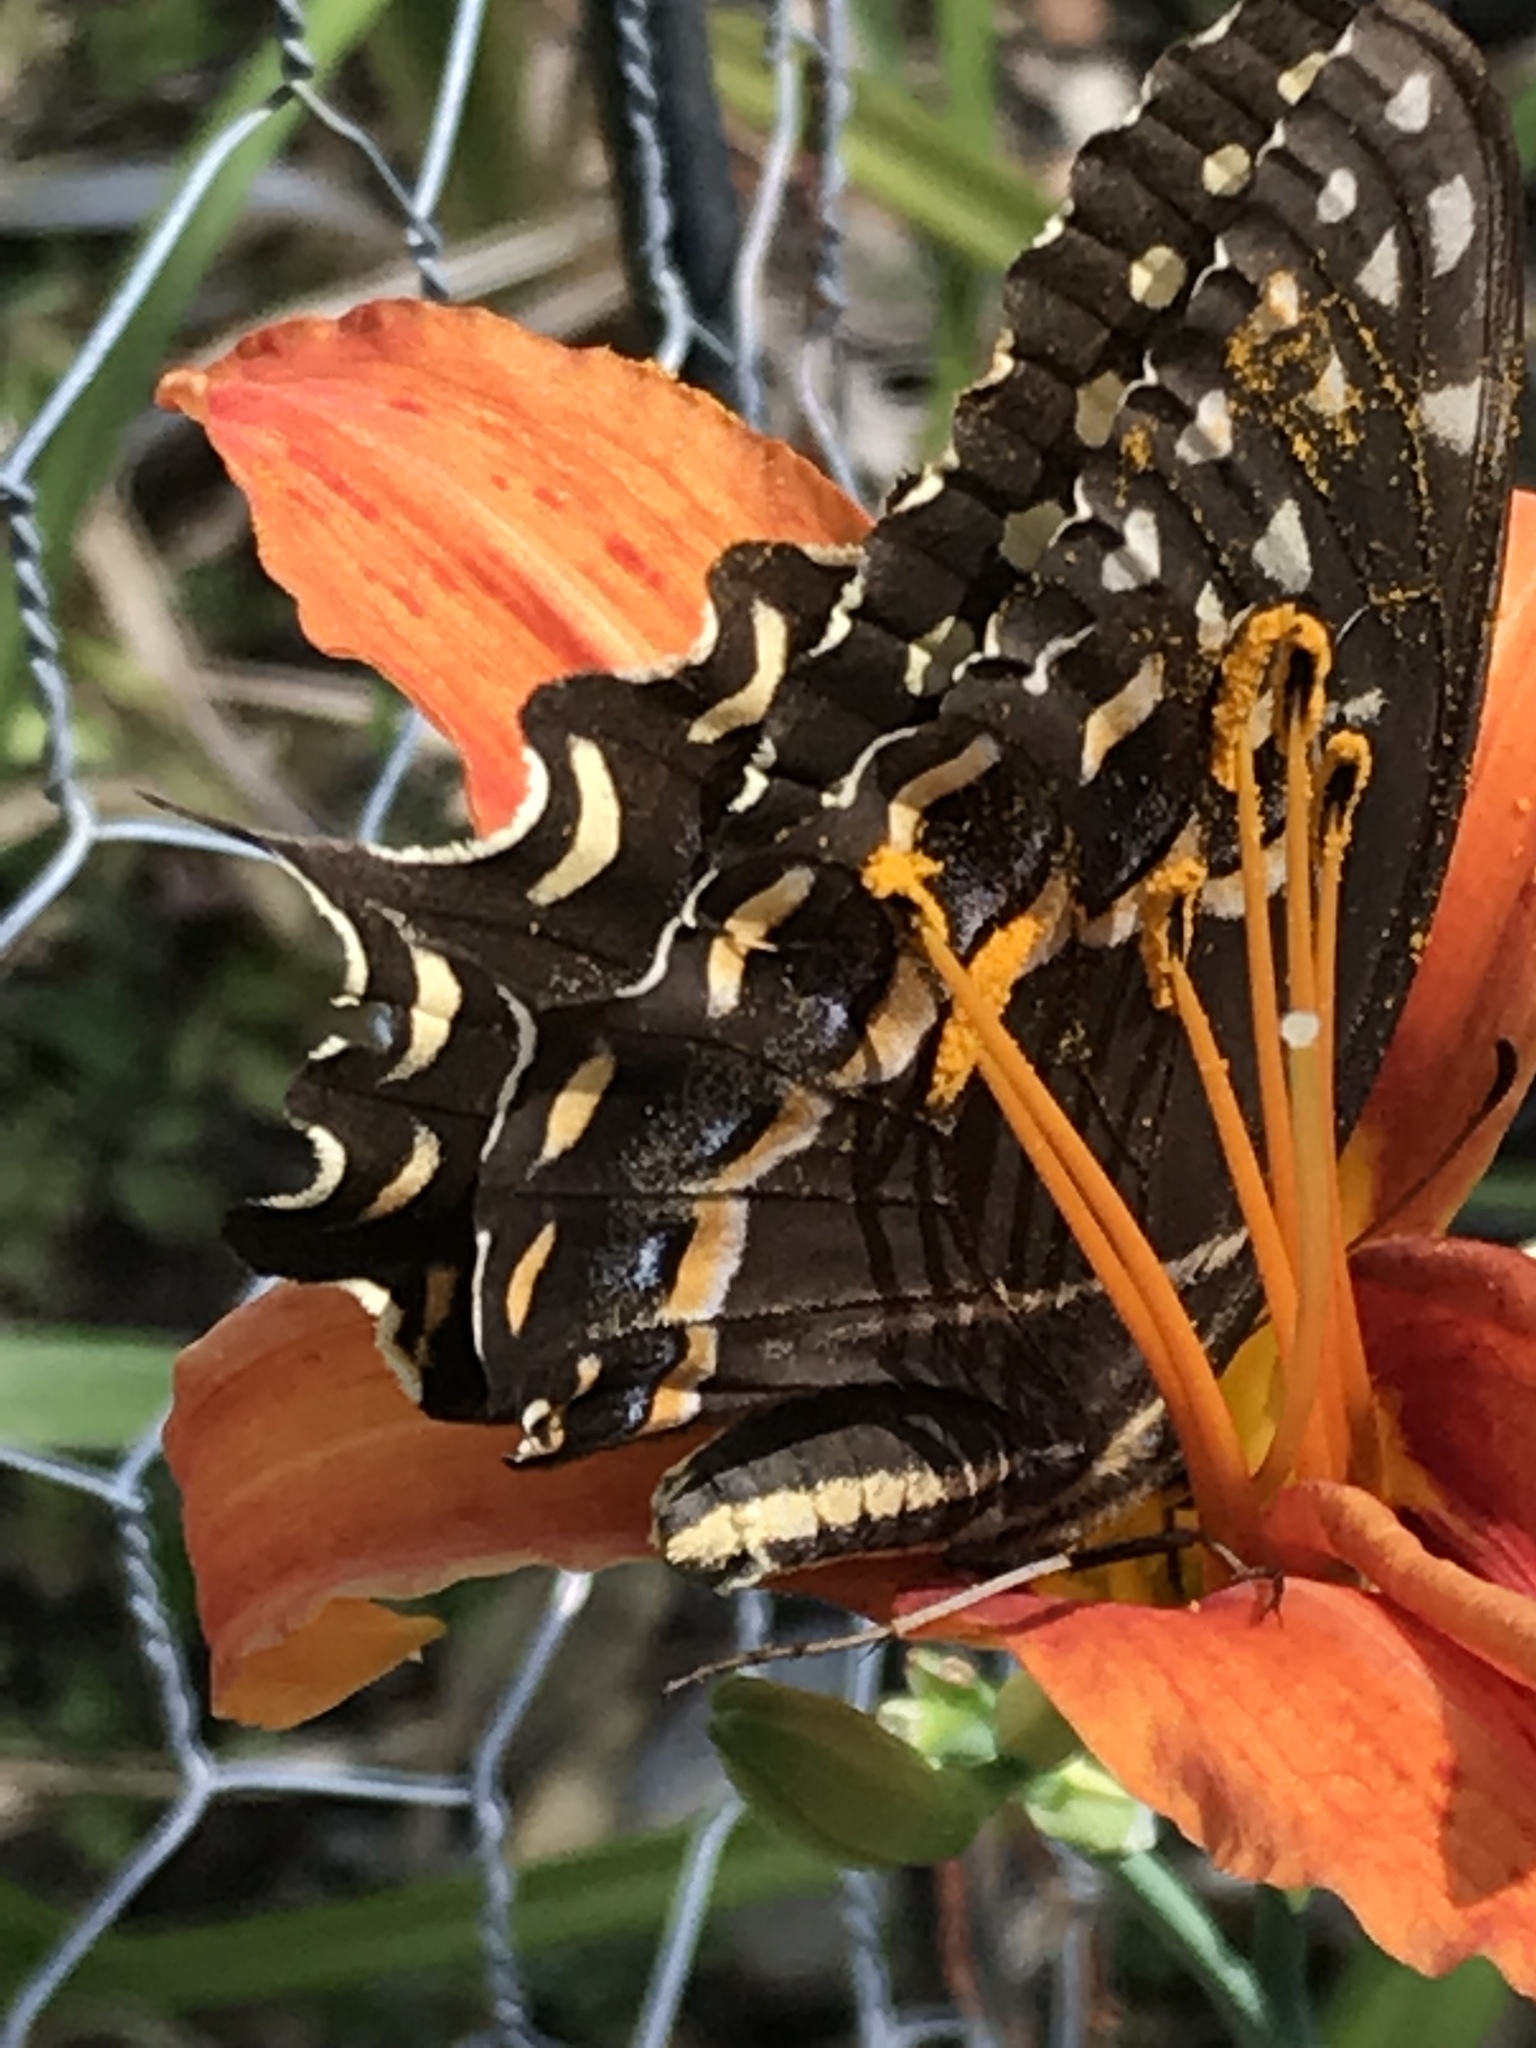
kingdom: Animalia
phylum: Arthropoda
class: Insecta
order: Lepidoptera
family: Papilionidae
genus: Papilio
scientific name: Papilio palamedes
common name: Palamedes swallowtail
